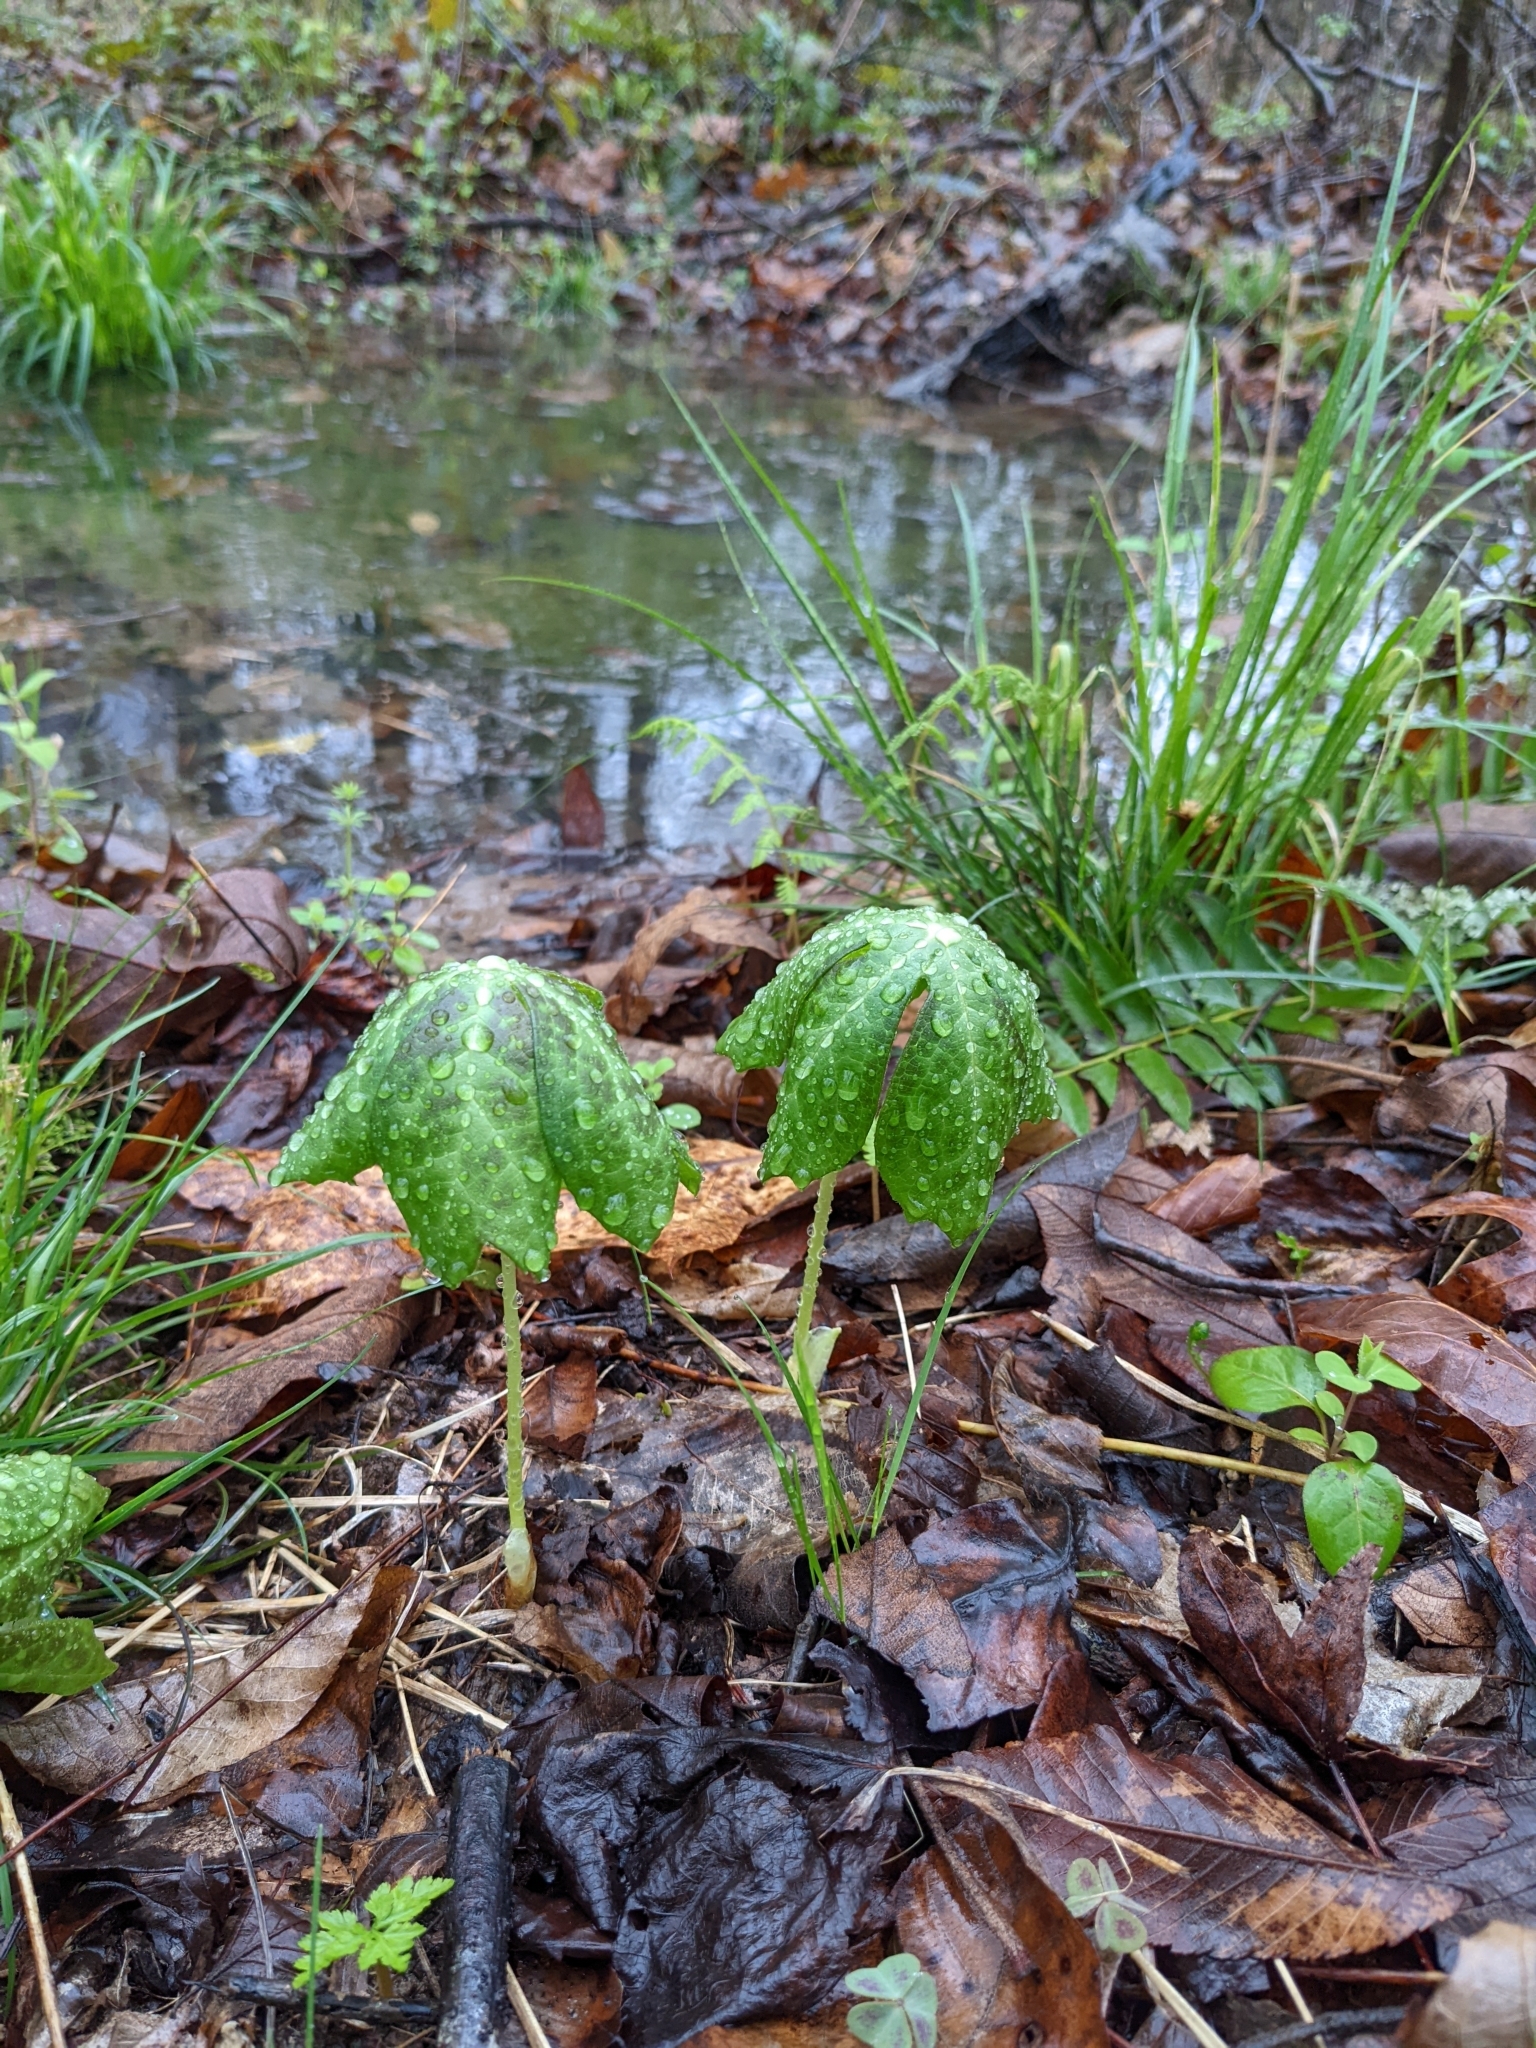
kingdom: Plantae
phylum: Tracheophyta
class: Magnoliopsida
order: Ranunculales
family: Berberidaceae
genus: Podophyllum
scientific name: Podophyllum peltatum
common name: Wild mandrake
